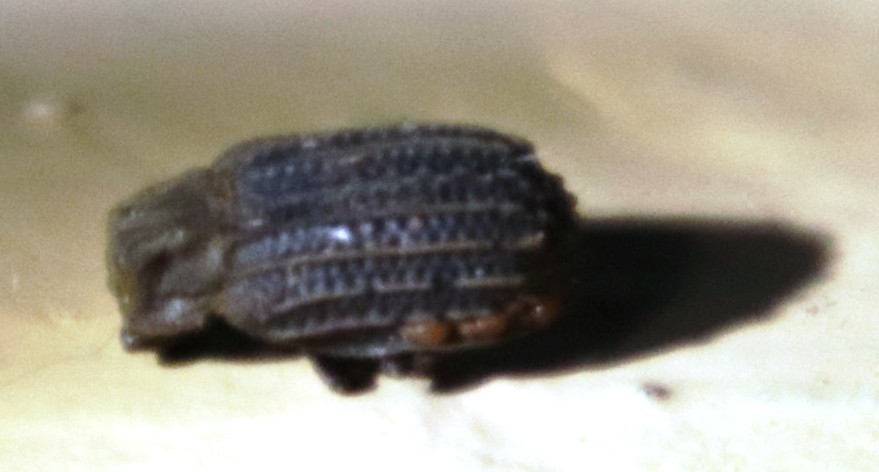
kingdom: Animalia
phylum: Arthropoda
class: Insecta
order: Coleoptera
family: Trogidae
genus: Phoberus
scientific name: Phoberus rhyparoides
